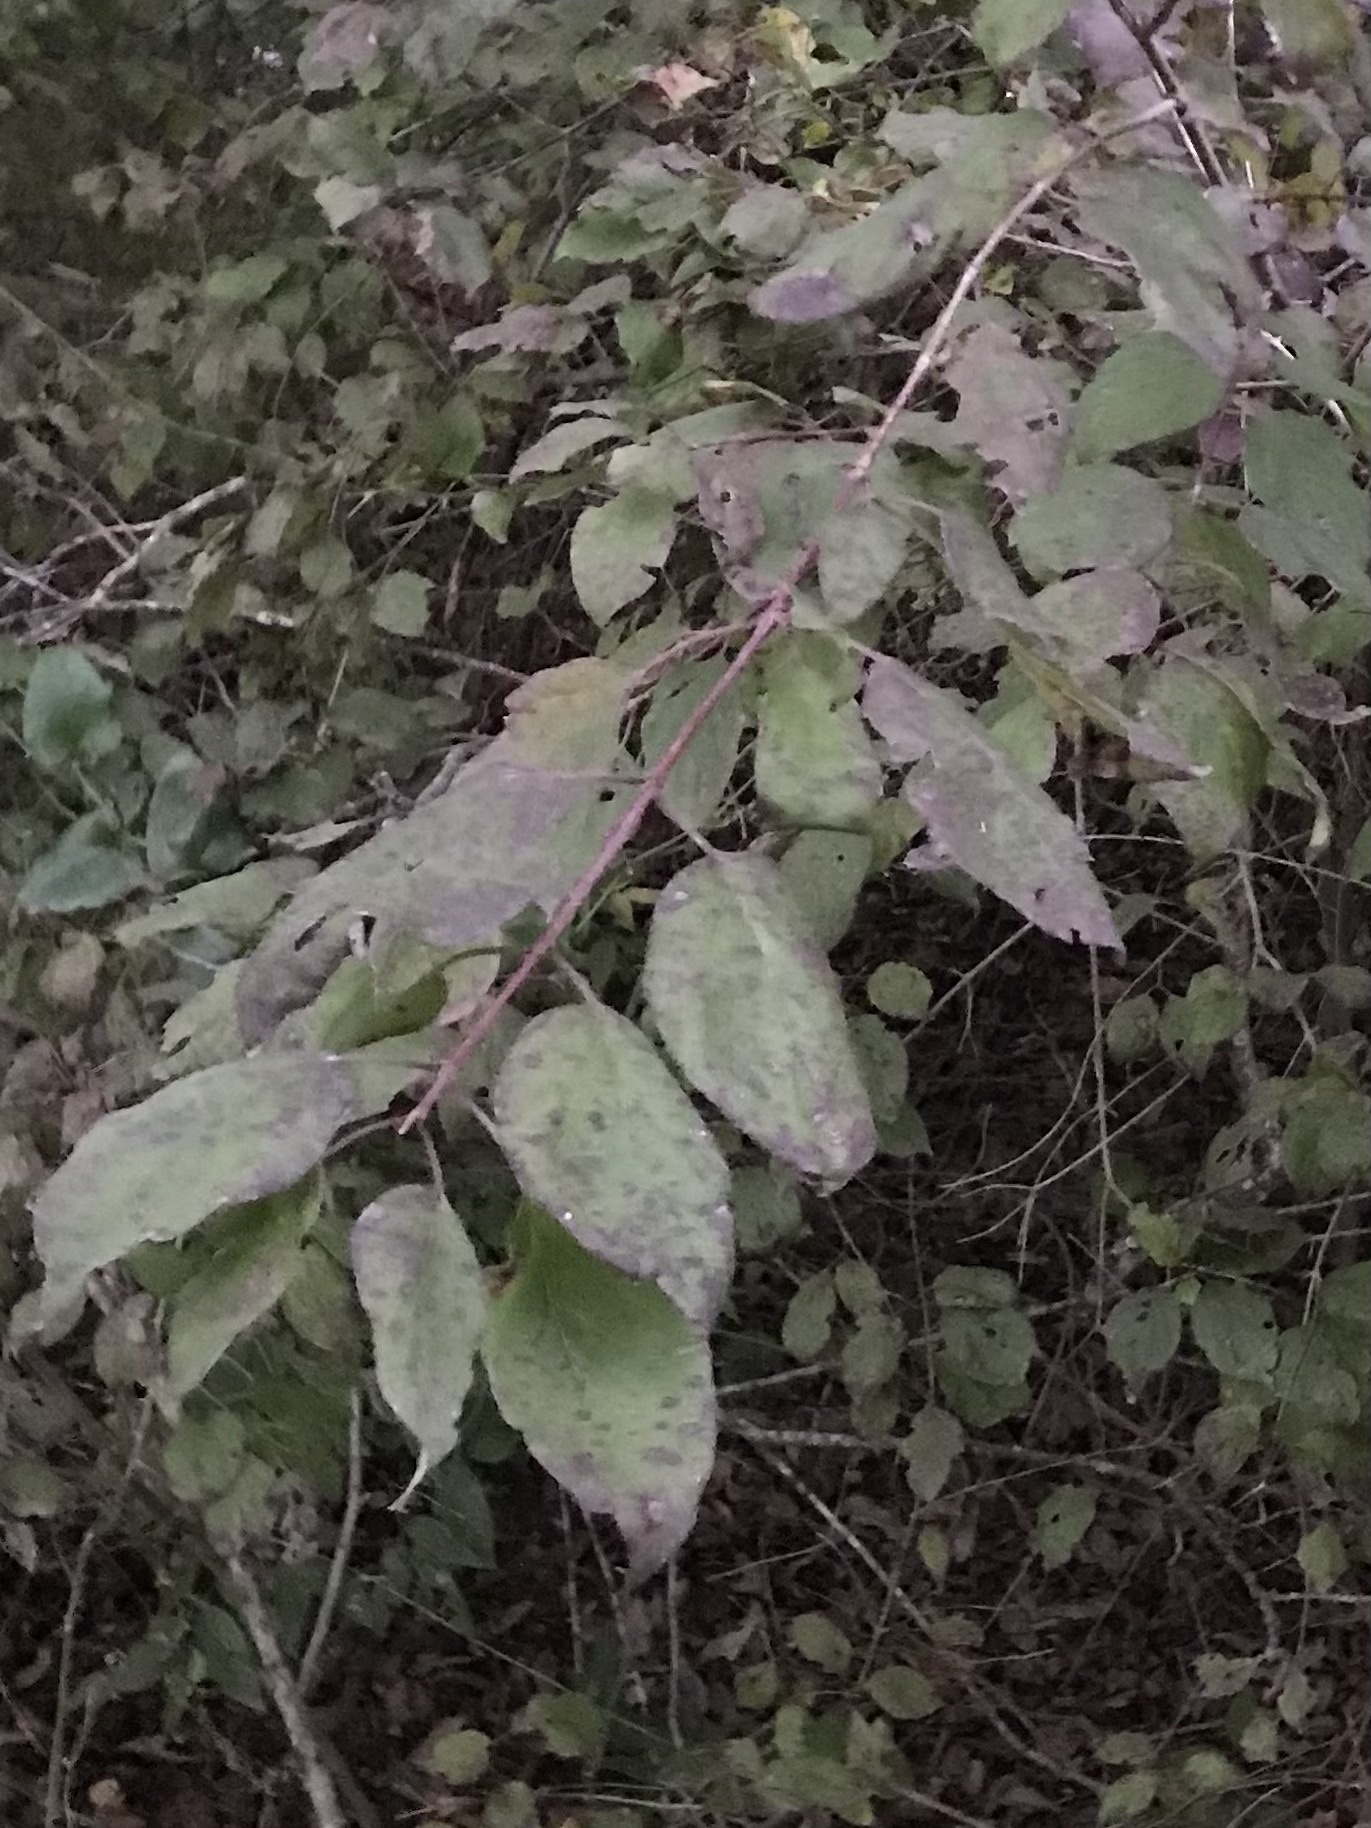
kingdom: Plantae
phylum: Tracheophyta
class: Magnoliopsida
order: Cornales
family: Cornaceae
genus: Cornus
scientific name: Cornus drummondii
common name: Rough-leaf dogwood
